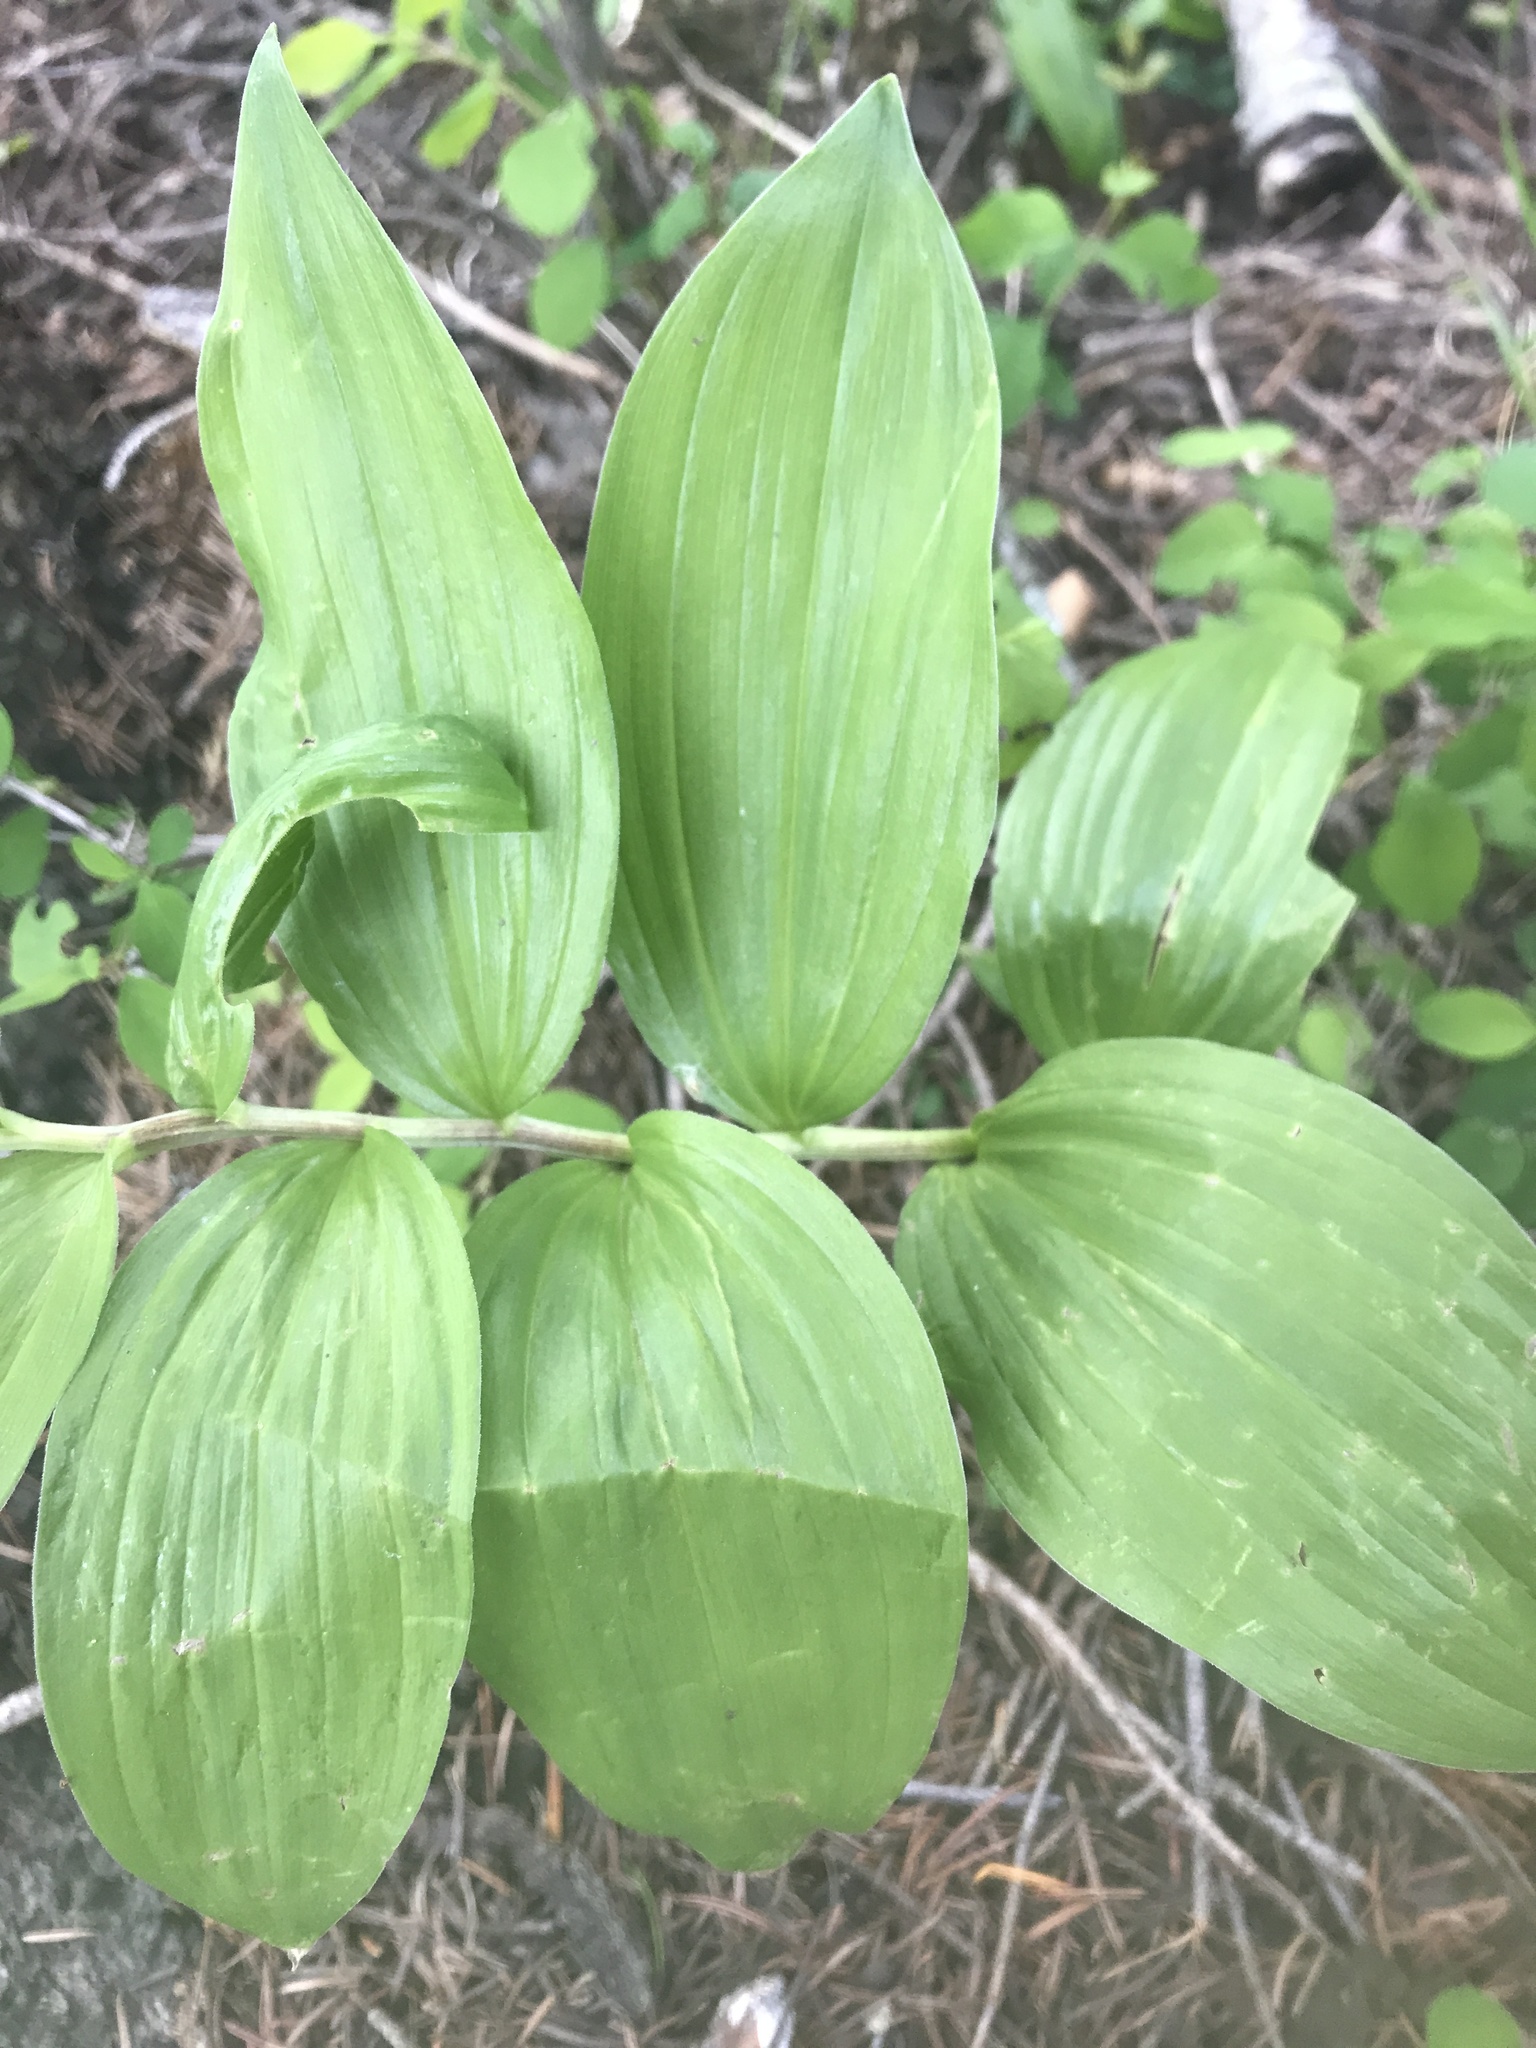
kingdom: Plantae
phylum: Tracheophyta
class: Liliopsida
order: Asparagales
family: Asparagaceae
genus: Maianthemum
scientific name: Maianthemum racemosum
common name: False spikenard
